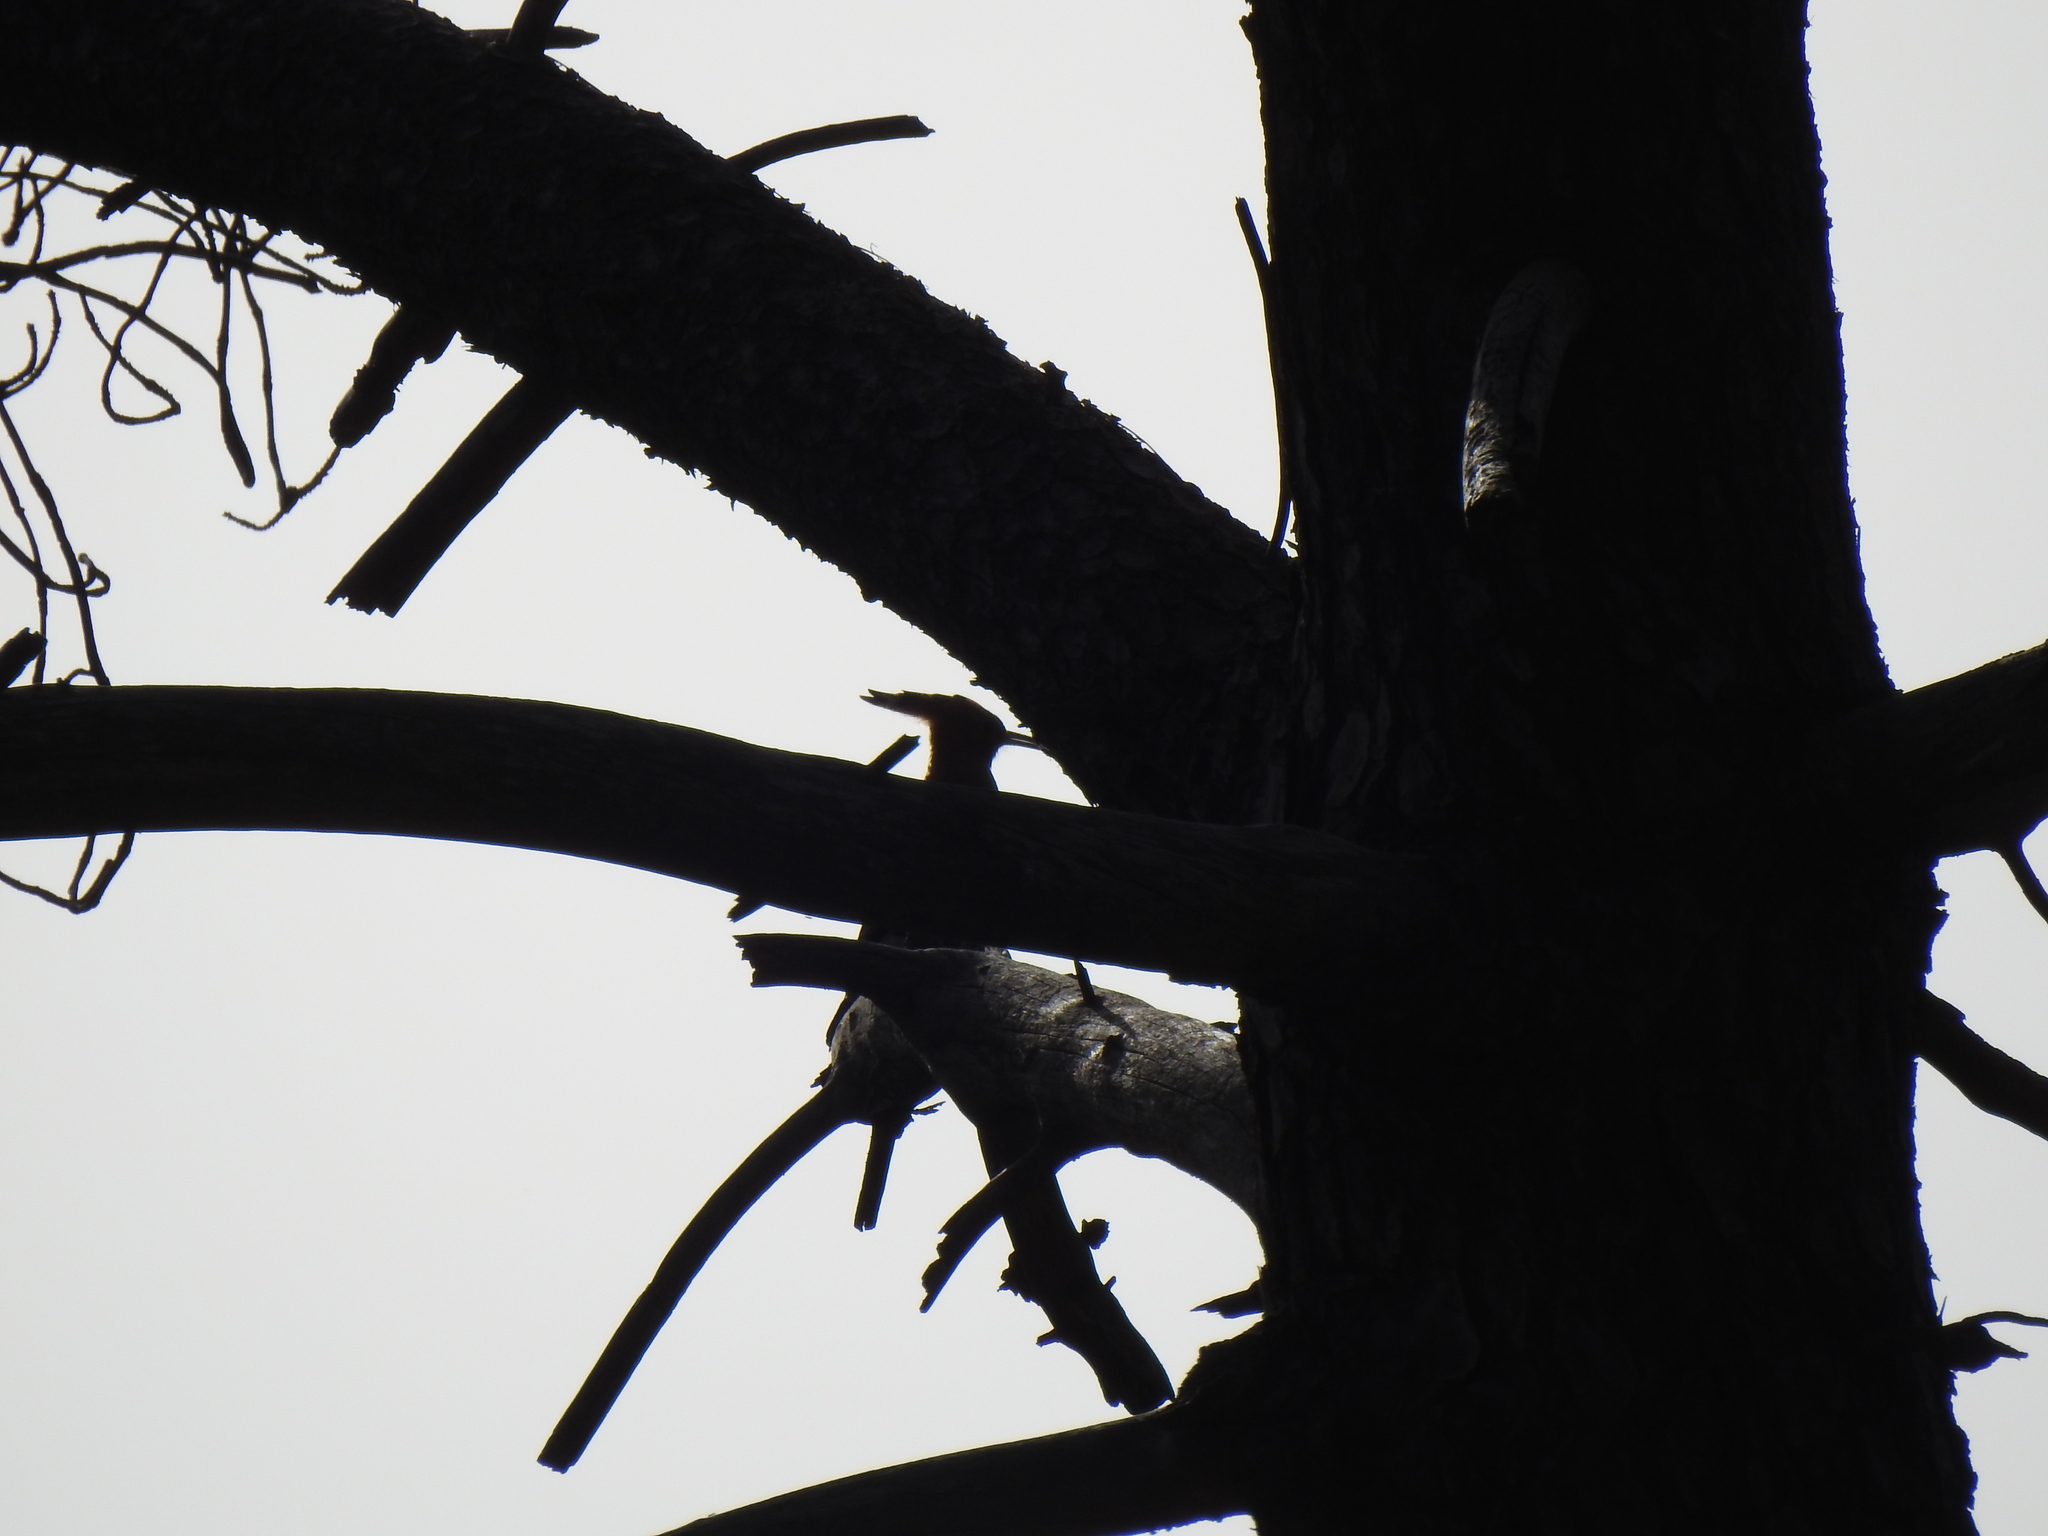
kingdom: Animalia
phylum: Chordata
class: Aves
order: Bucerotiformes
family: Upupidae
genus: Upupa
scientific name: Upupa epops
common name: Eurasian hoopoe
